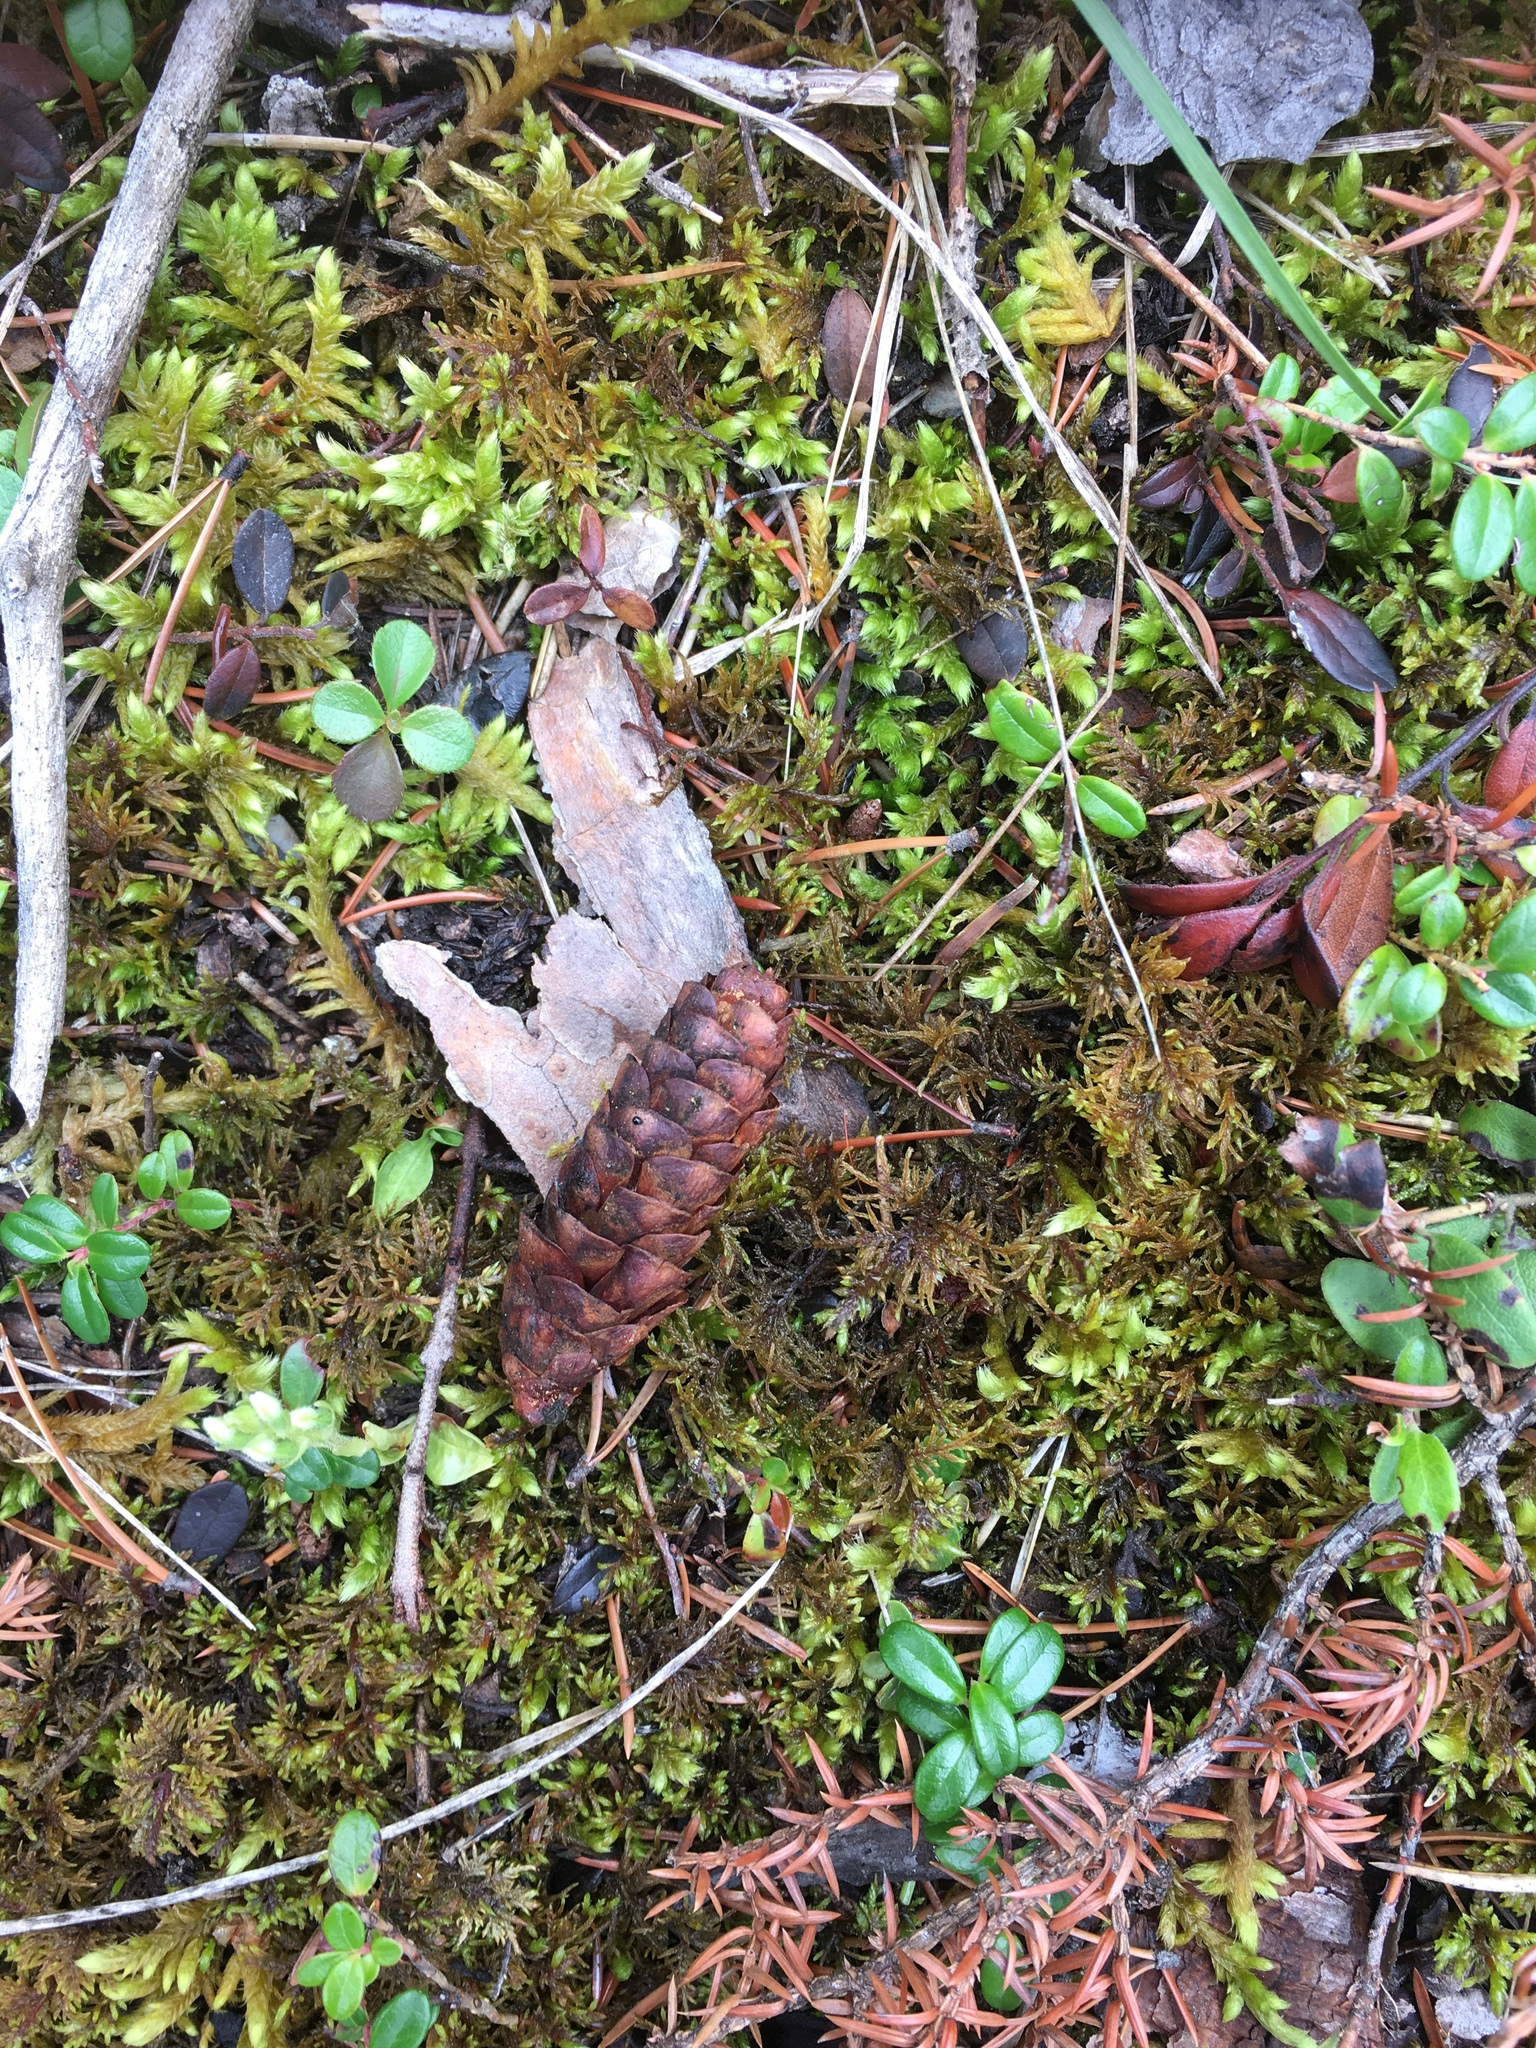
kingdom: Plantae
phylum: Tracheophyta
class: Pinopsida
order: Pinales
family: Pinaceae
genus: Picea
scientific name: Picea glauca
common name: White spruce
